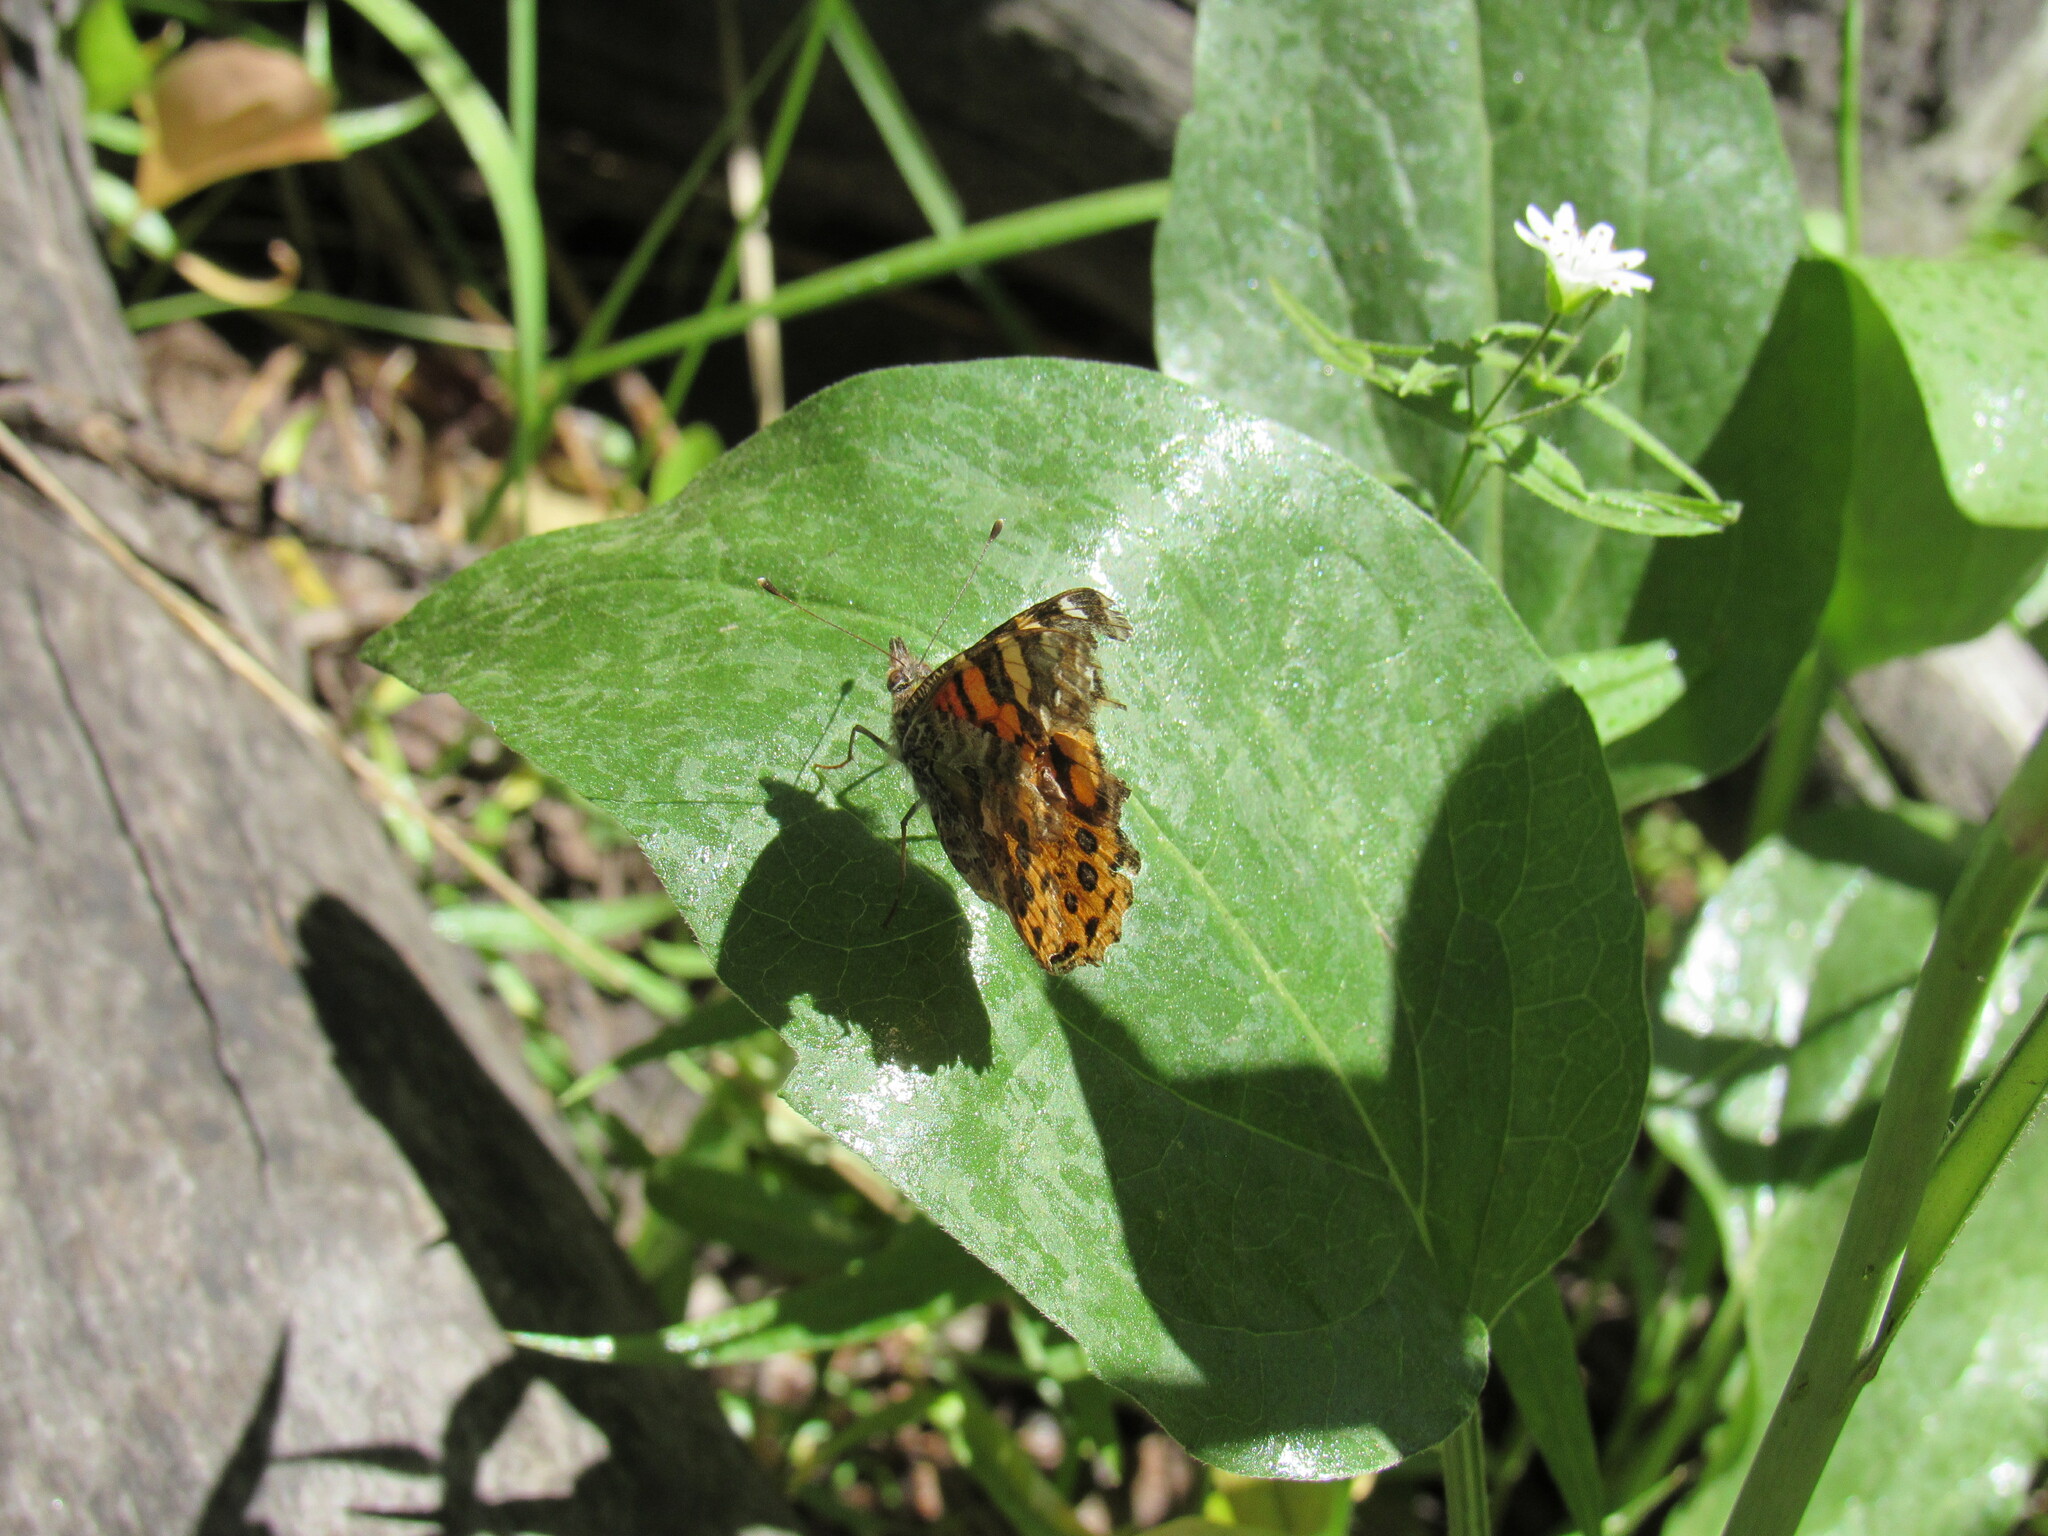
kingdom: Animalia
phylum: Arthropoda
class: Insecta
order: Lepidoptera
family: Nymphalidae
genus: Vanessa
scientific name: Vanessa annabella
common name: West coast lady
